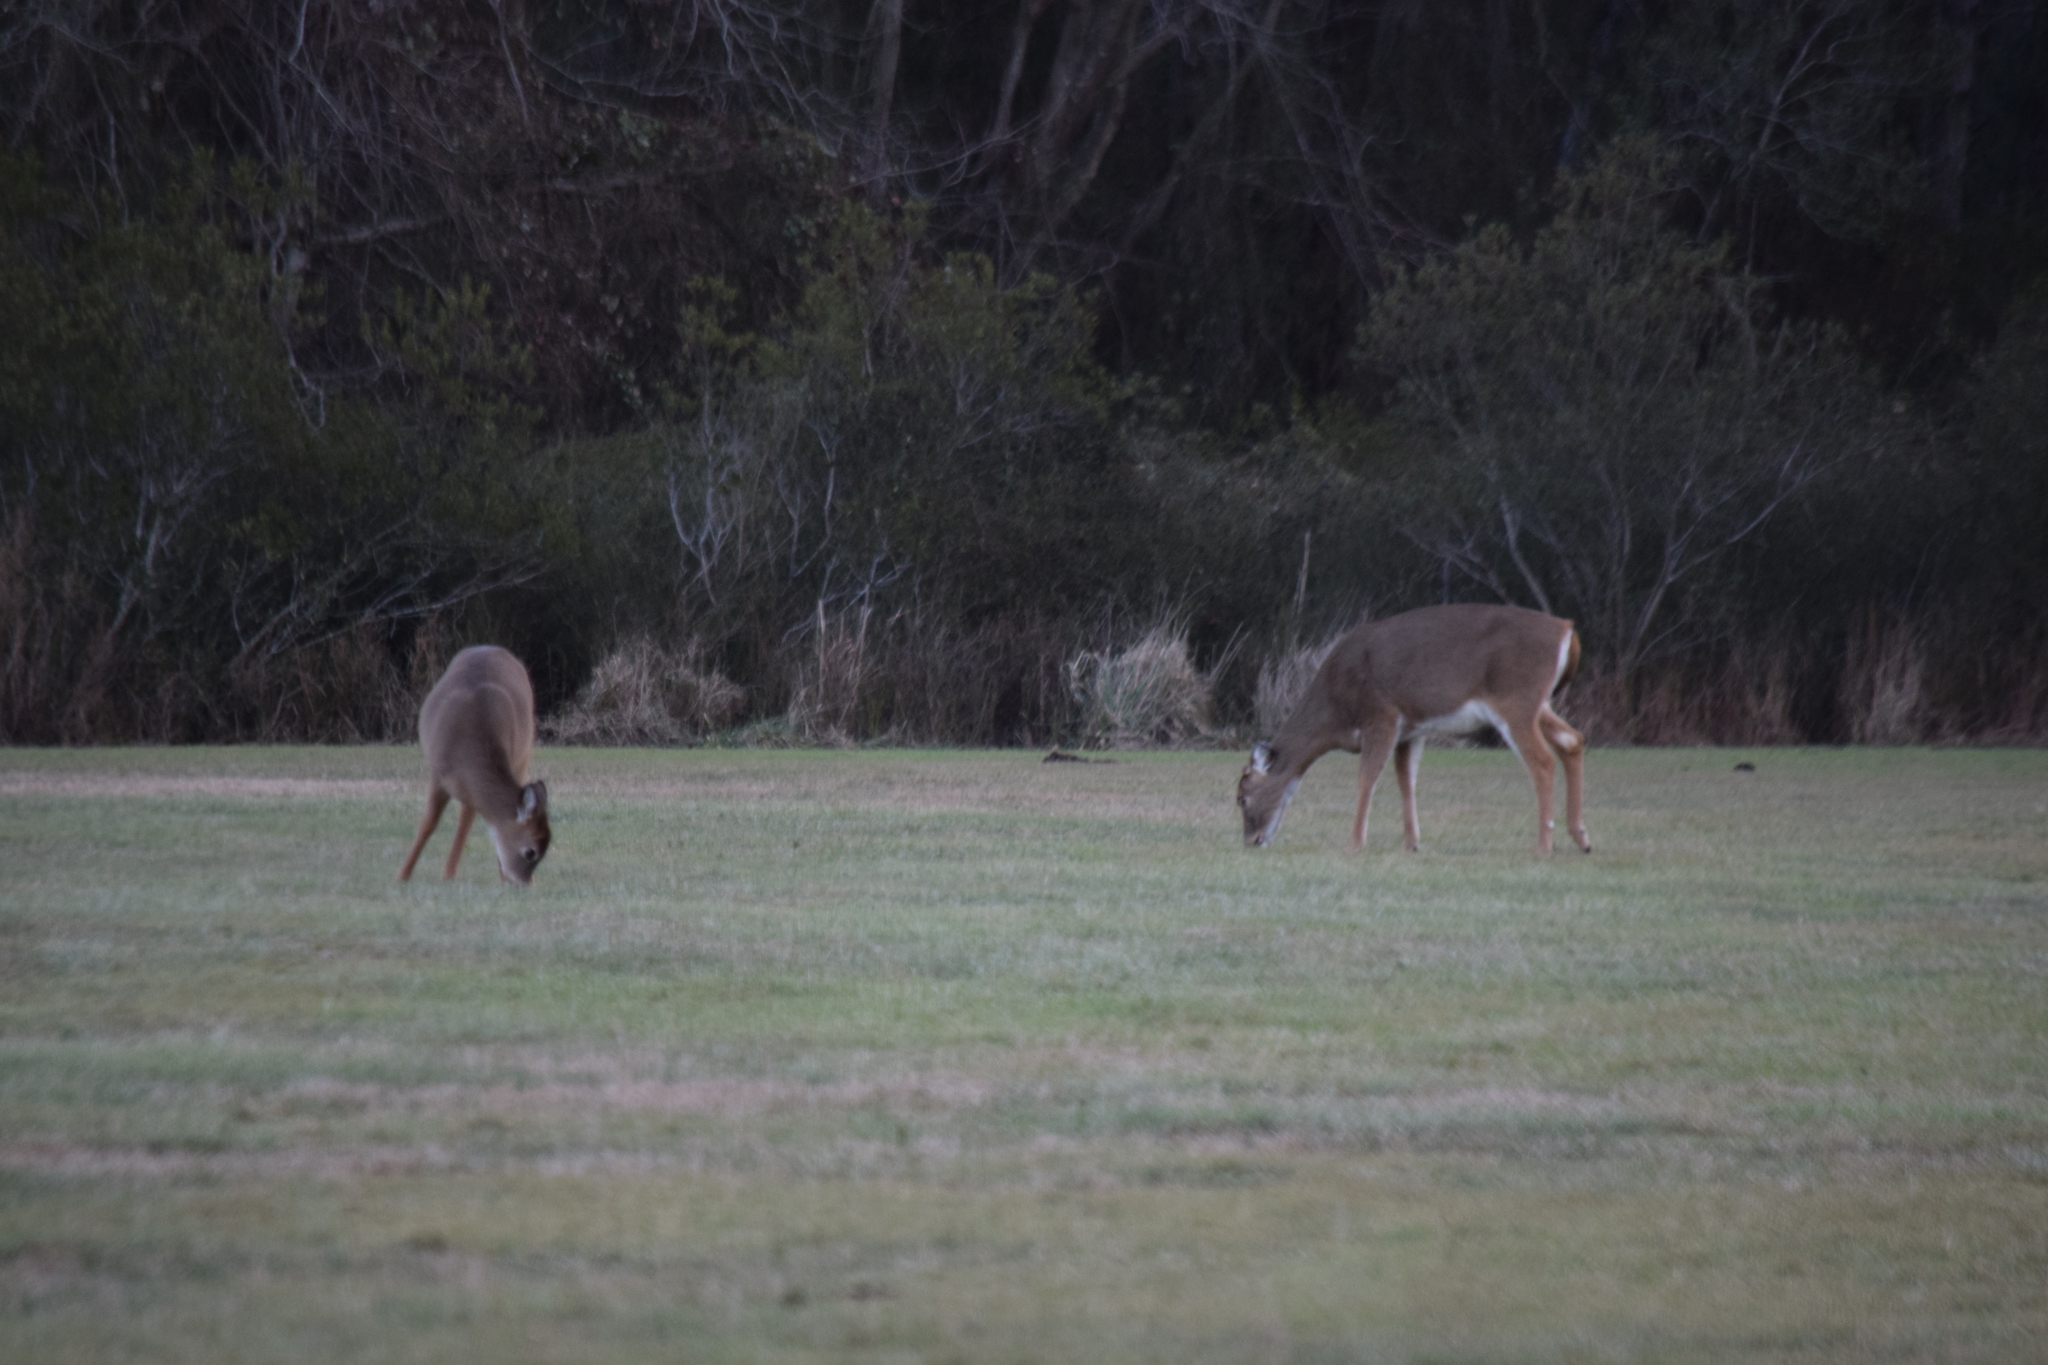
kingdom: Animalia
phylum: Chordata
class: Mammalia
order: Artiodactyla
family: Cervidae
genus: Odocoileus
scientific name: Odocoileus virginianus
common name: White-tailed deer
